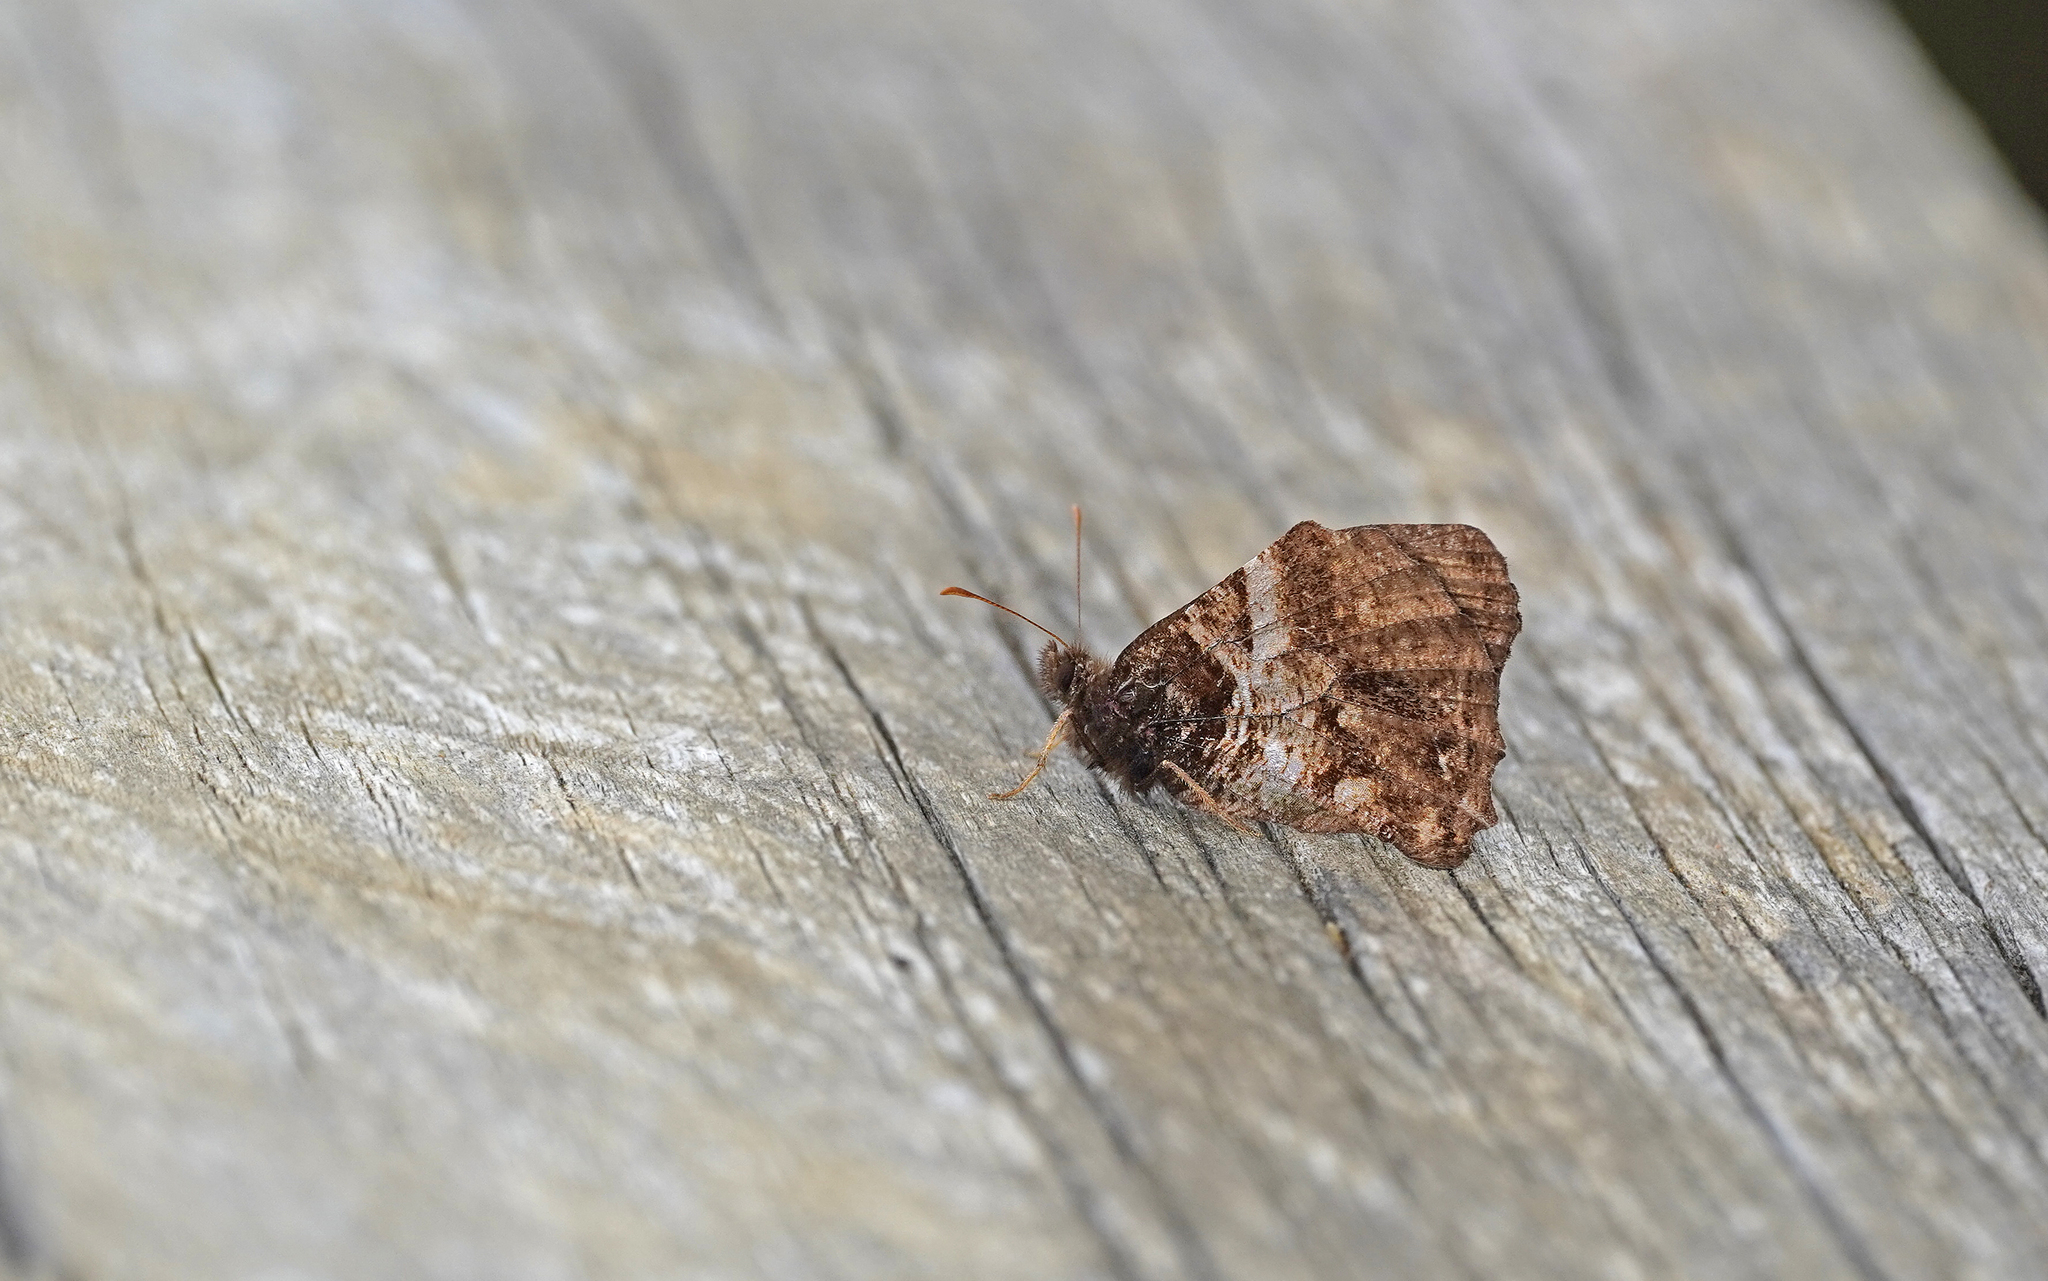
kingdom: Animalia
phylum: Arthropoda
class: Insecta
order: Lepidoptera
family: Nymphalidae
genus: Steroma
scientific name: Steroma polyxo
